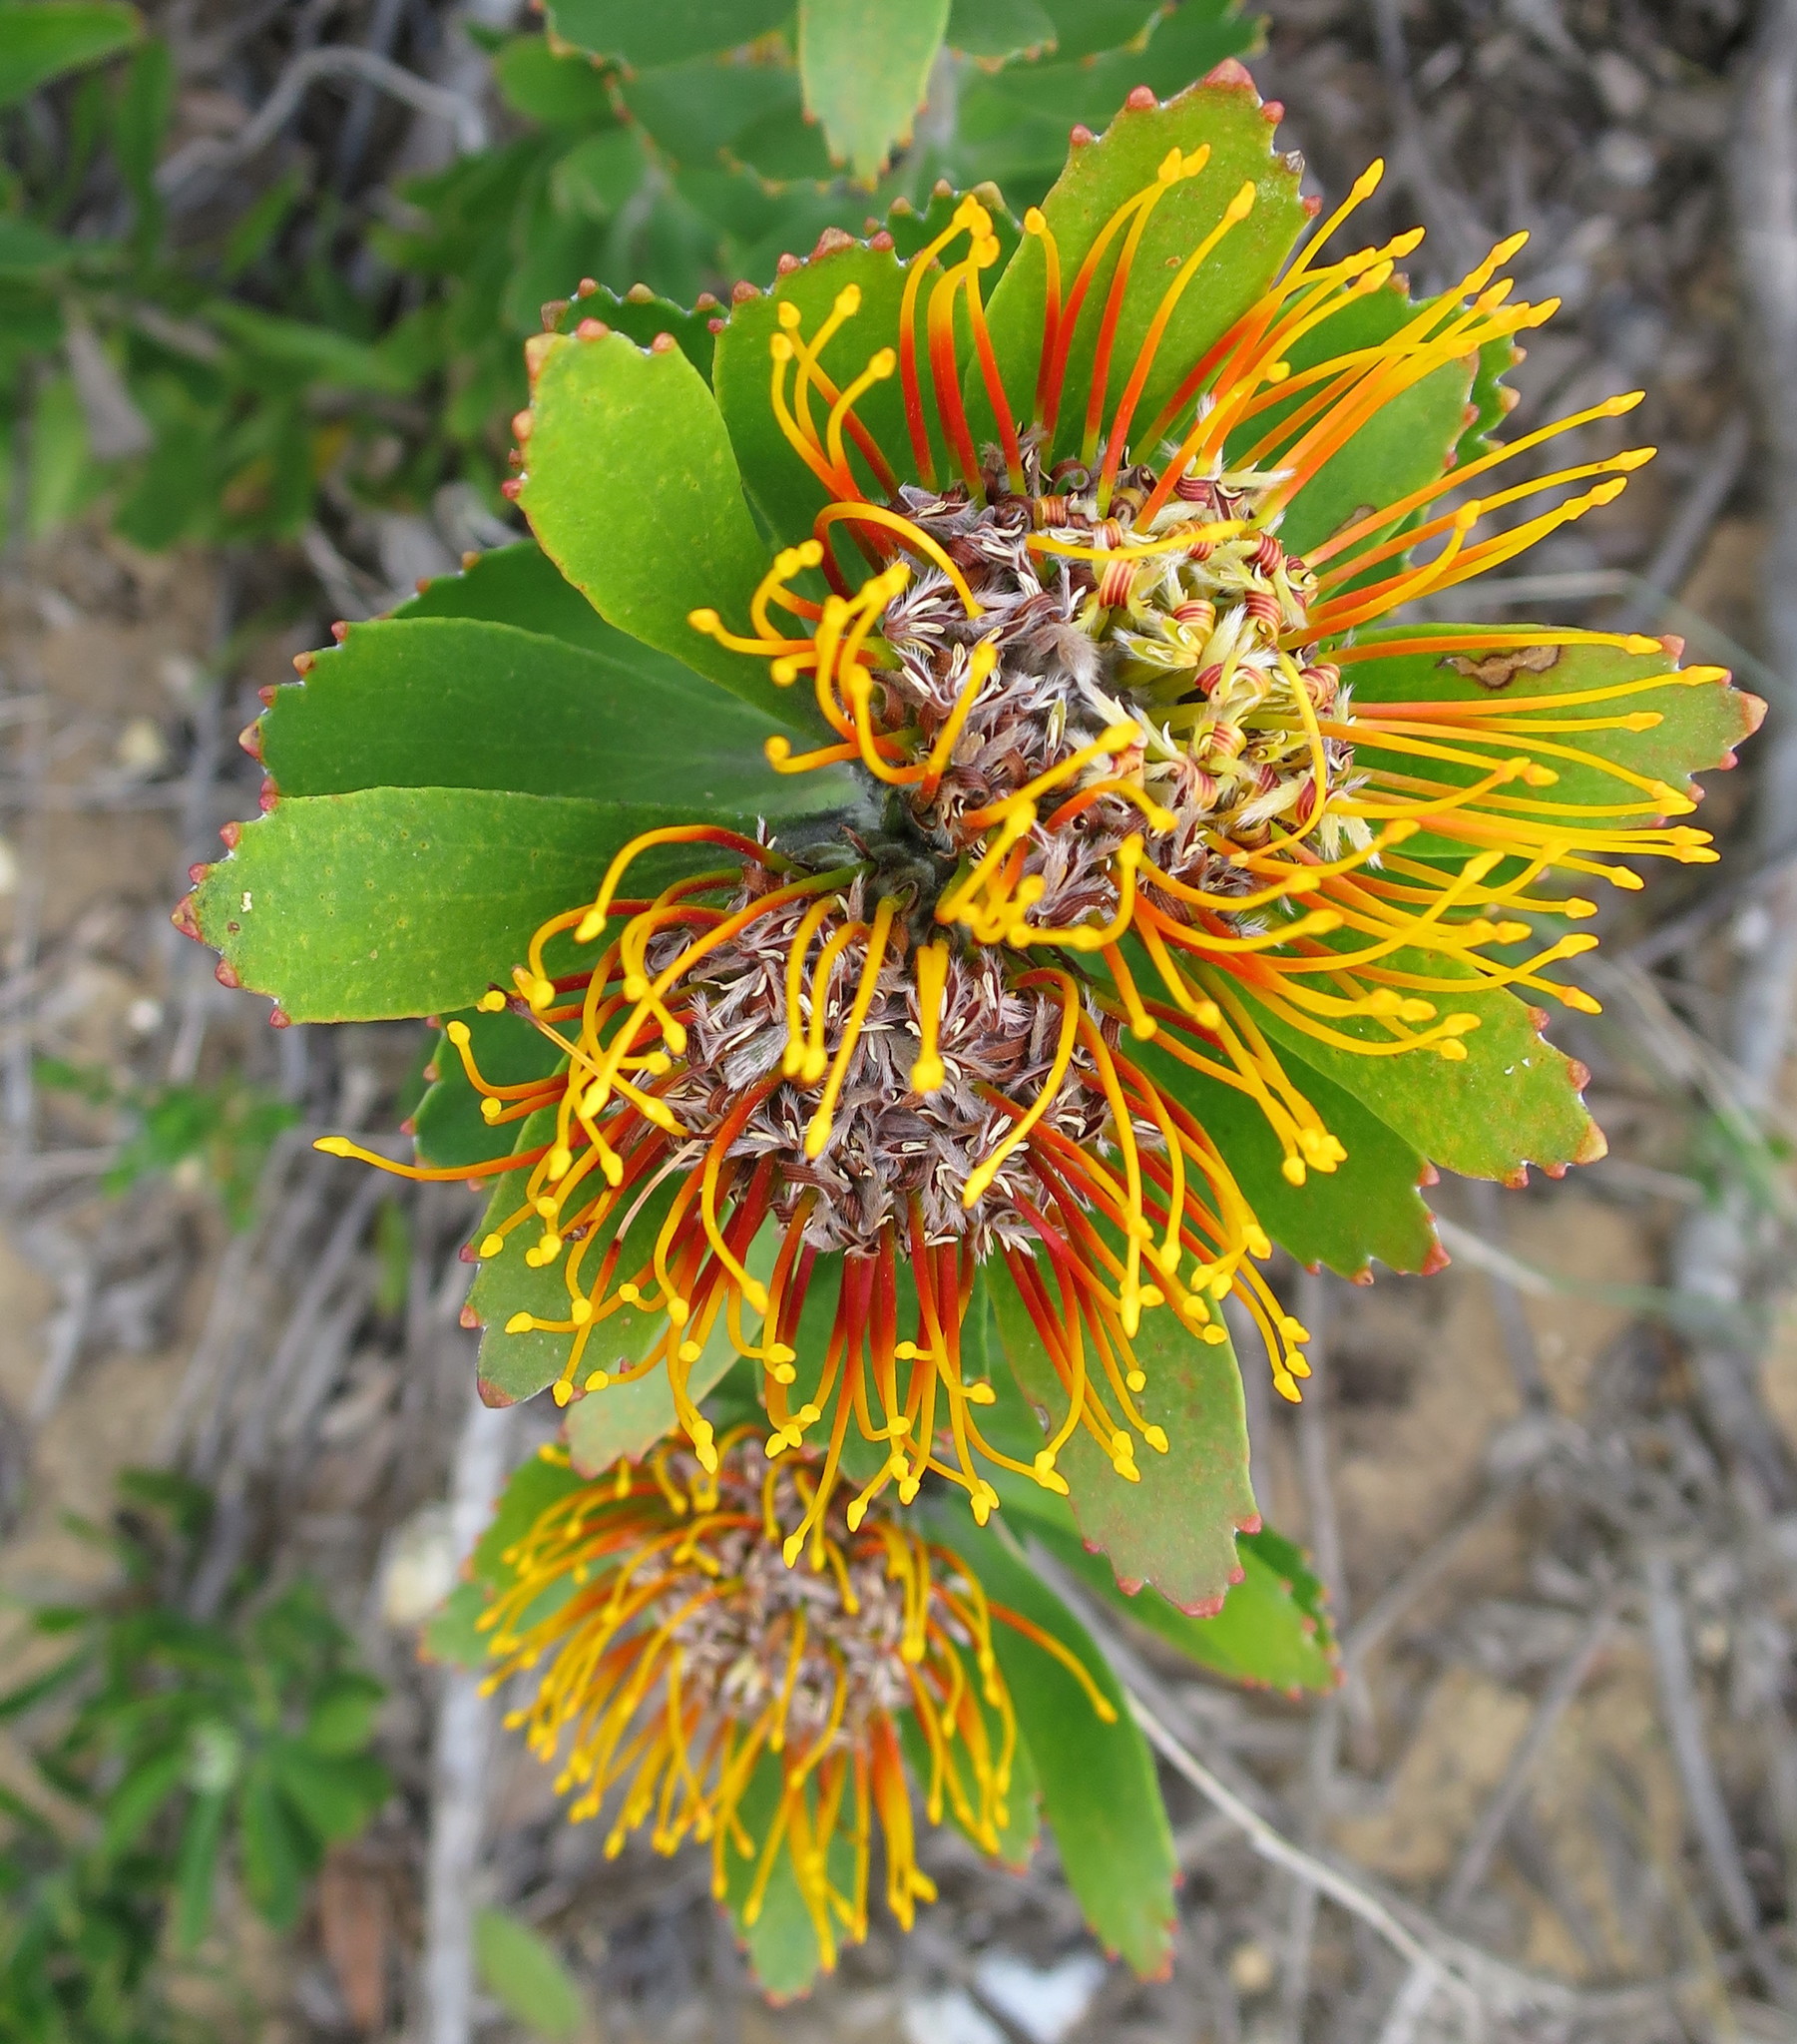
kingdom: Plantae
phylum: Tracheophyta
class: Magnoliopsida
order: Proteales
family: Proteaceae
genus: Leucospermum
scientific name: Leucospermum praecox
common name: Mossel bay pincushion
